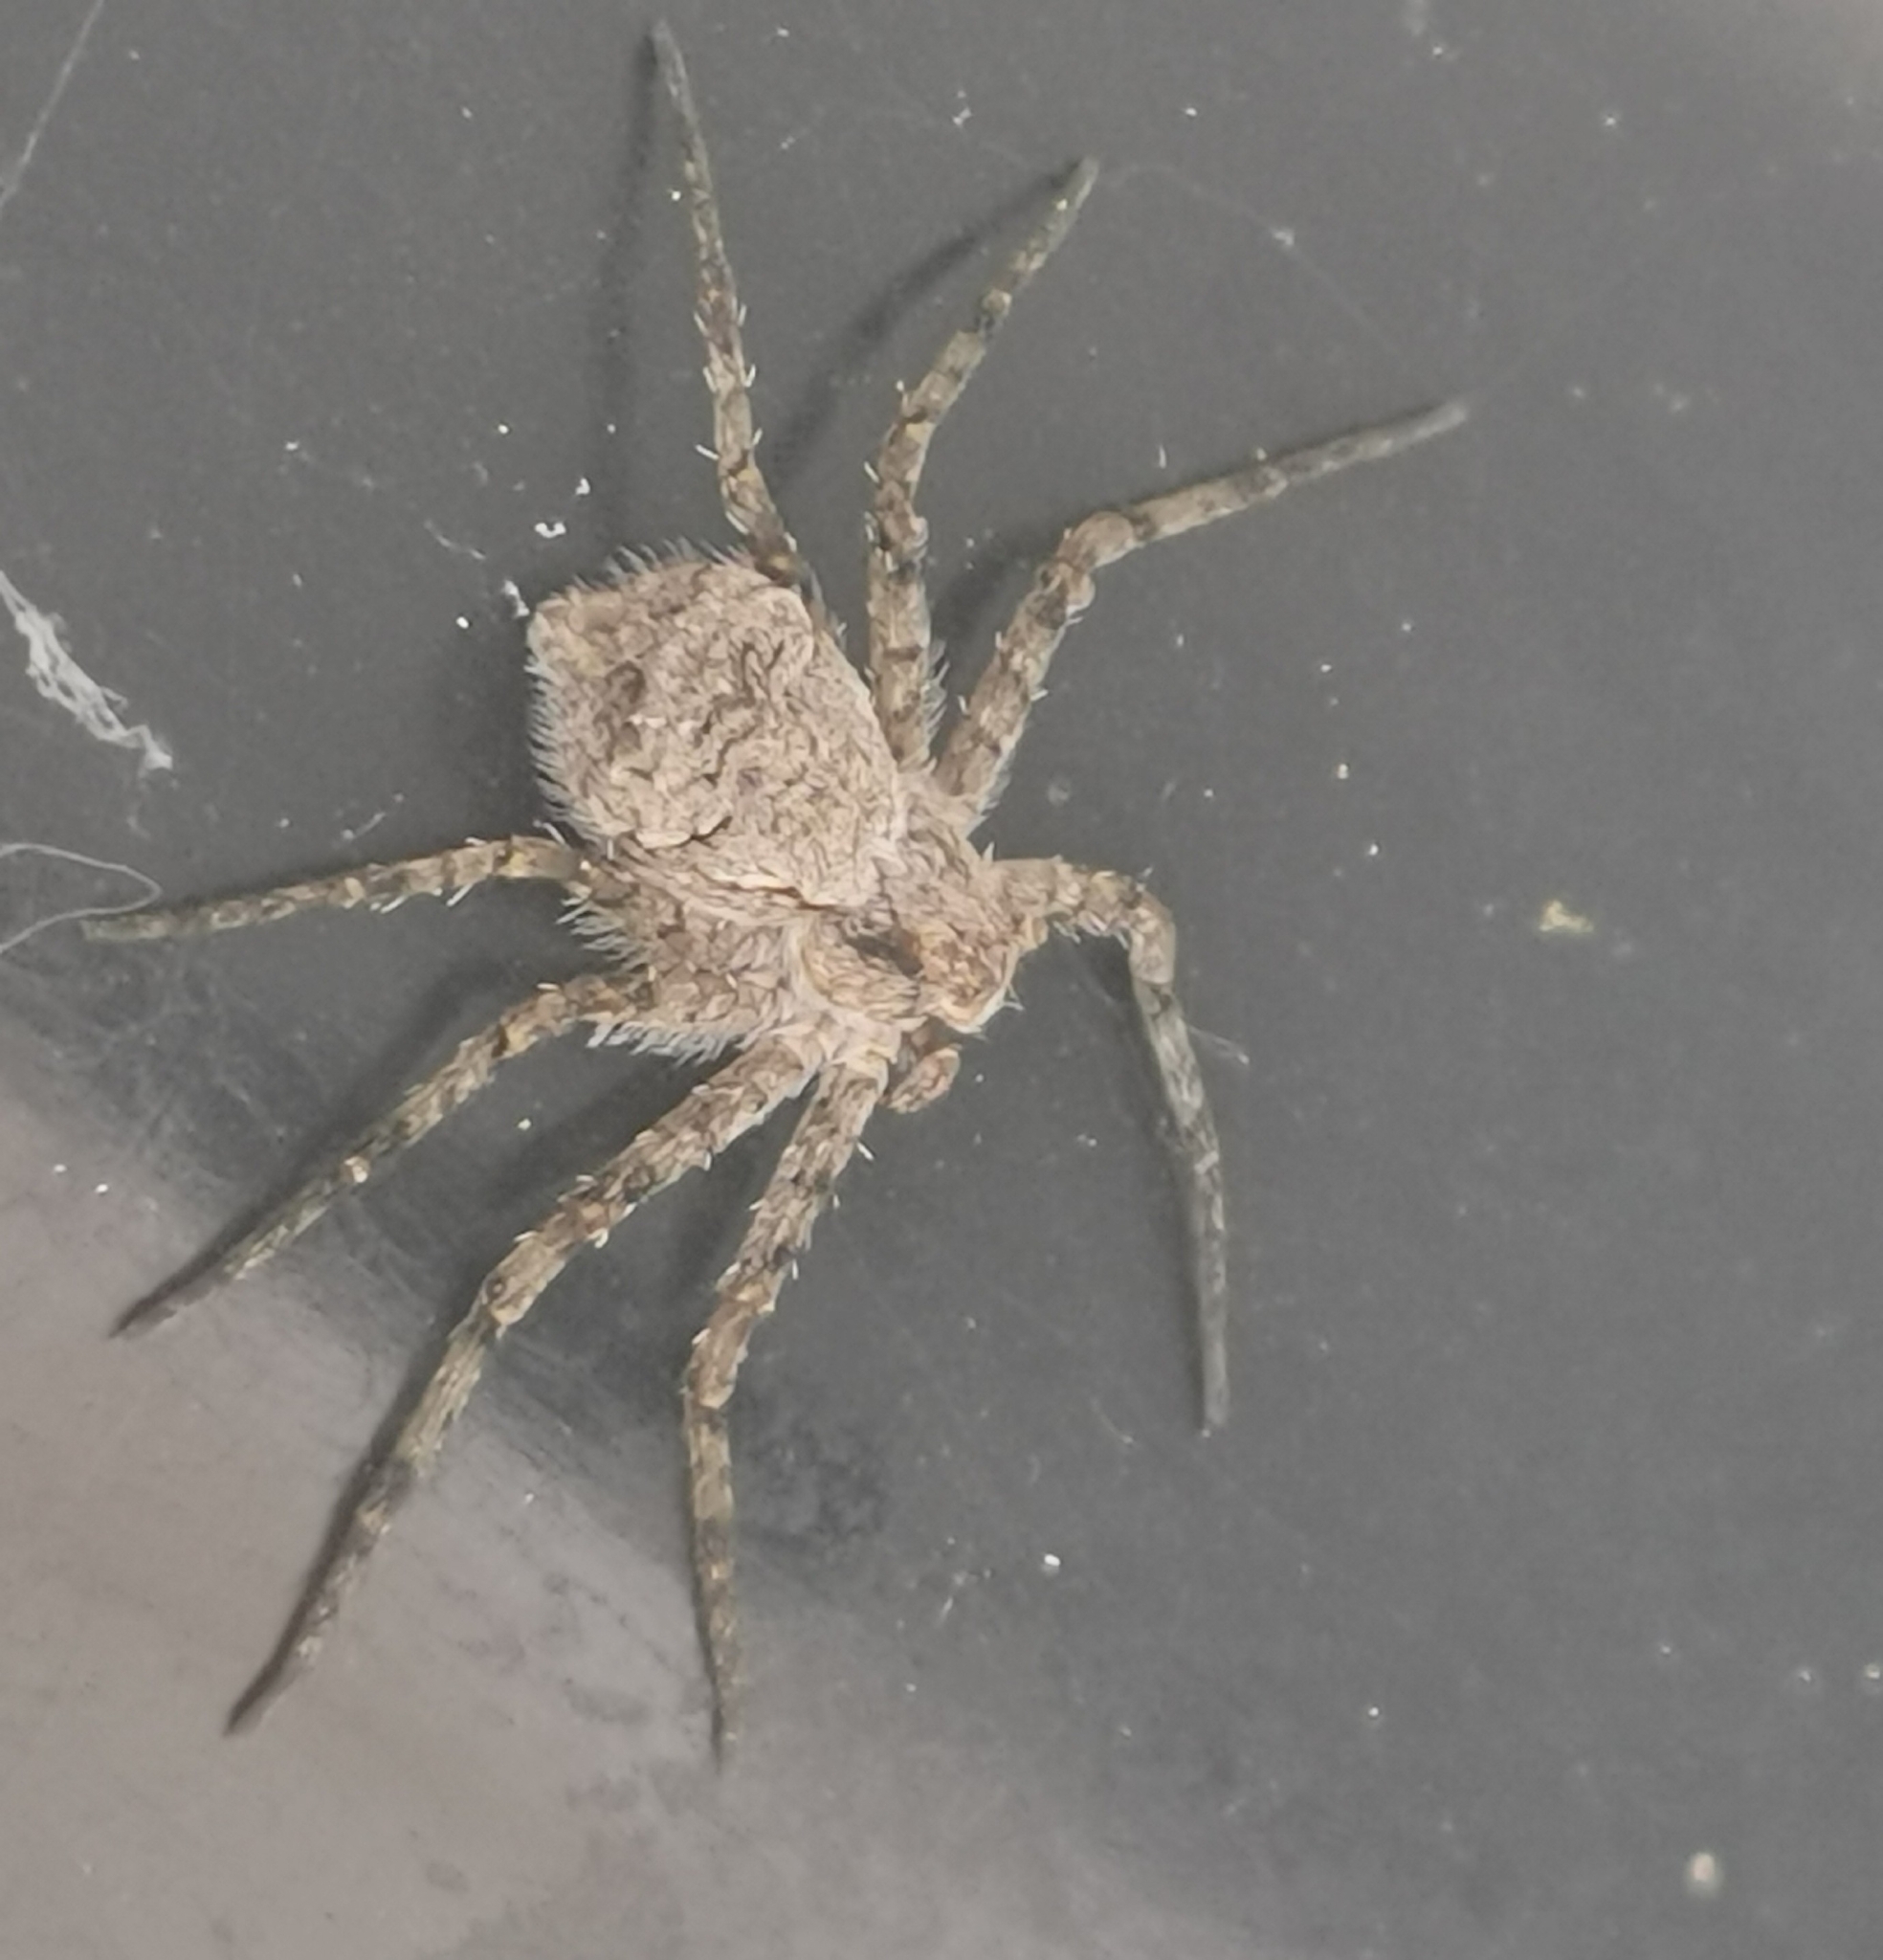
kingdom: Animalia
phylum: Arthropoda
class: Arachnida
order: Araneae
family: Philodromidae
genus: Philodromus
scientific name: Philodromus margaritatus
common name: Lichen running-spider
